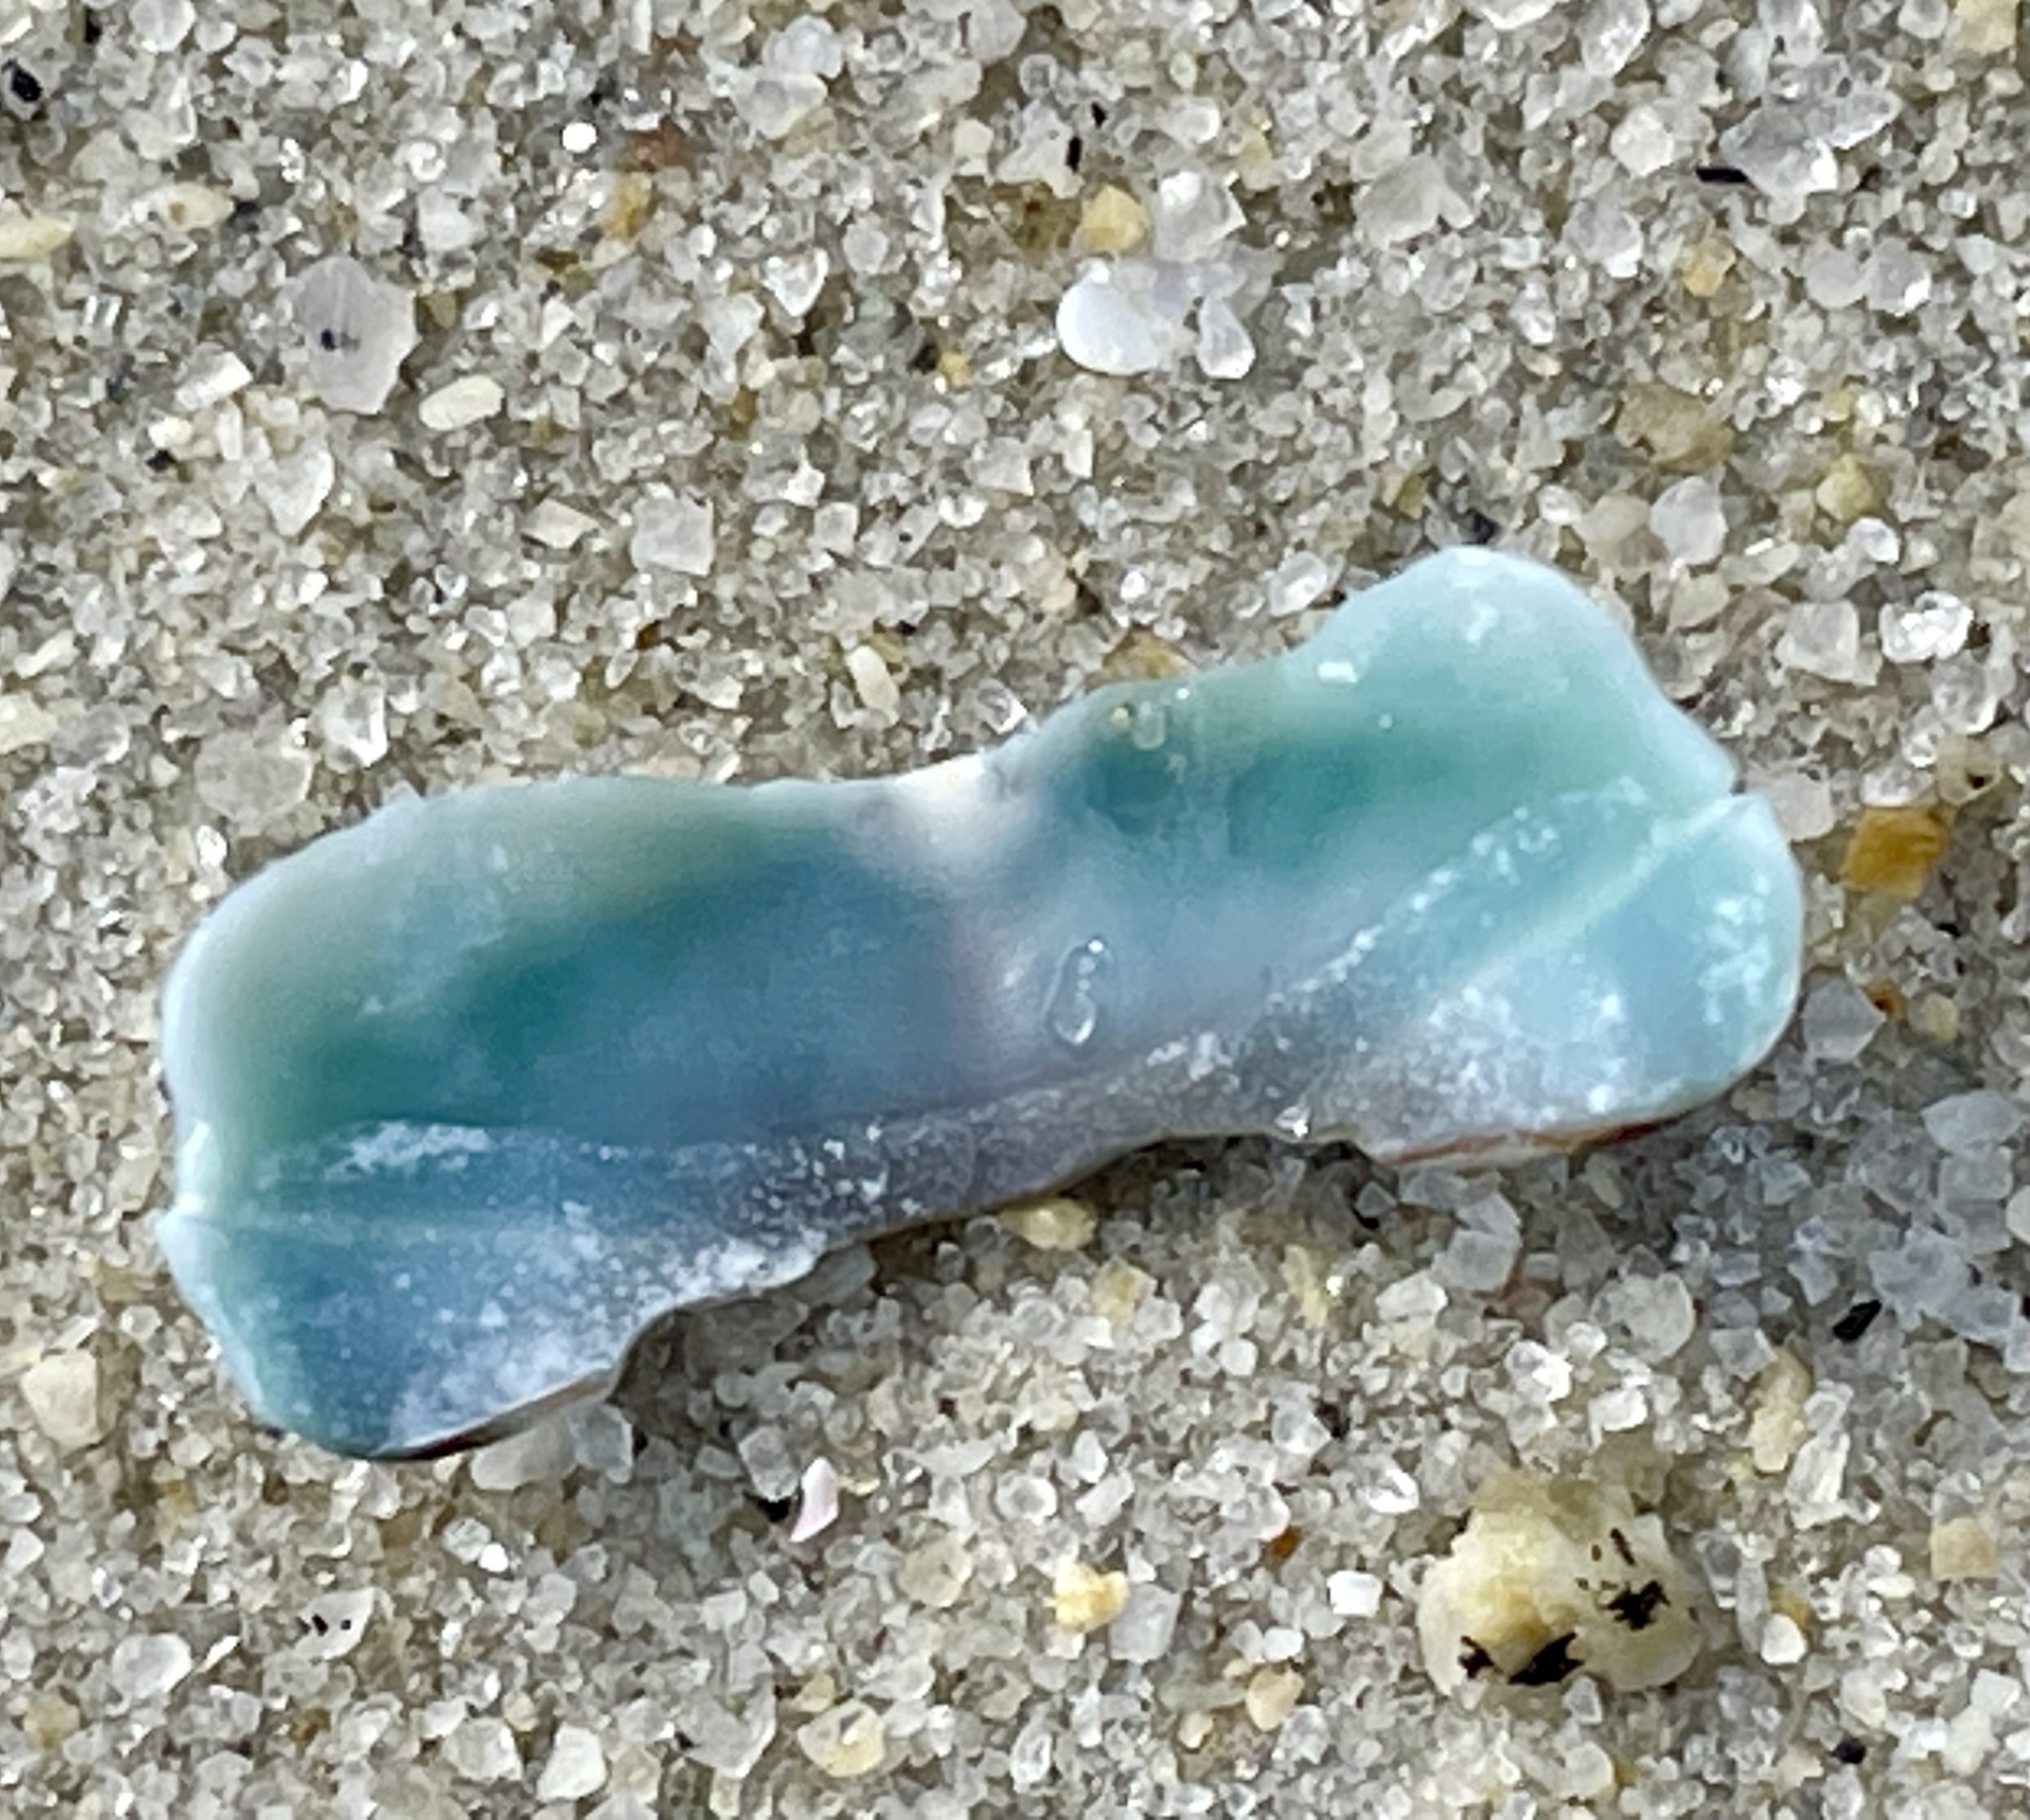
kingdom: Animalia
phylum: Mollusca
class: Polyplacophora
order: Chitonida
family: Mopaliidae
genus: Mopalia
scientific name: Mopalia muscosa
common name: Mossy chiton
